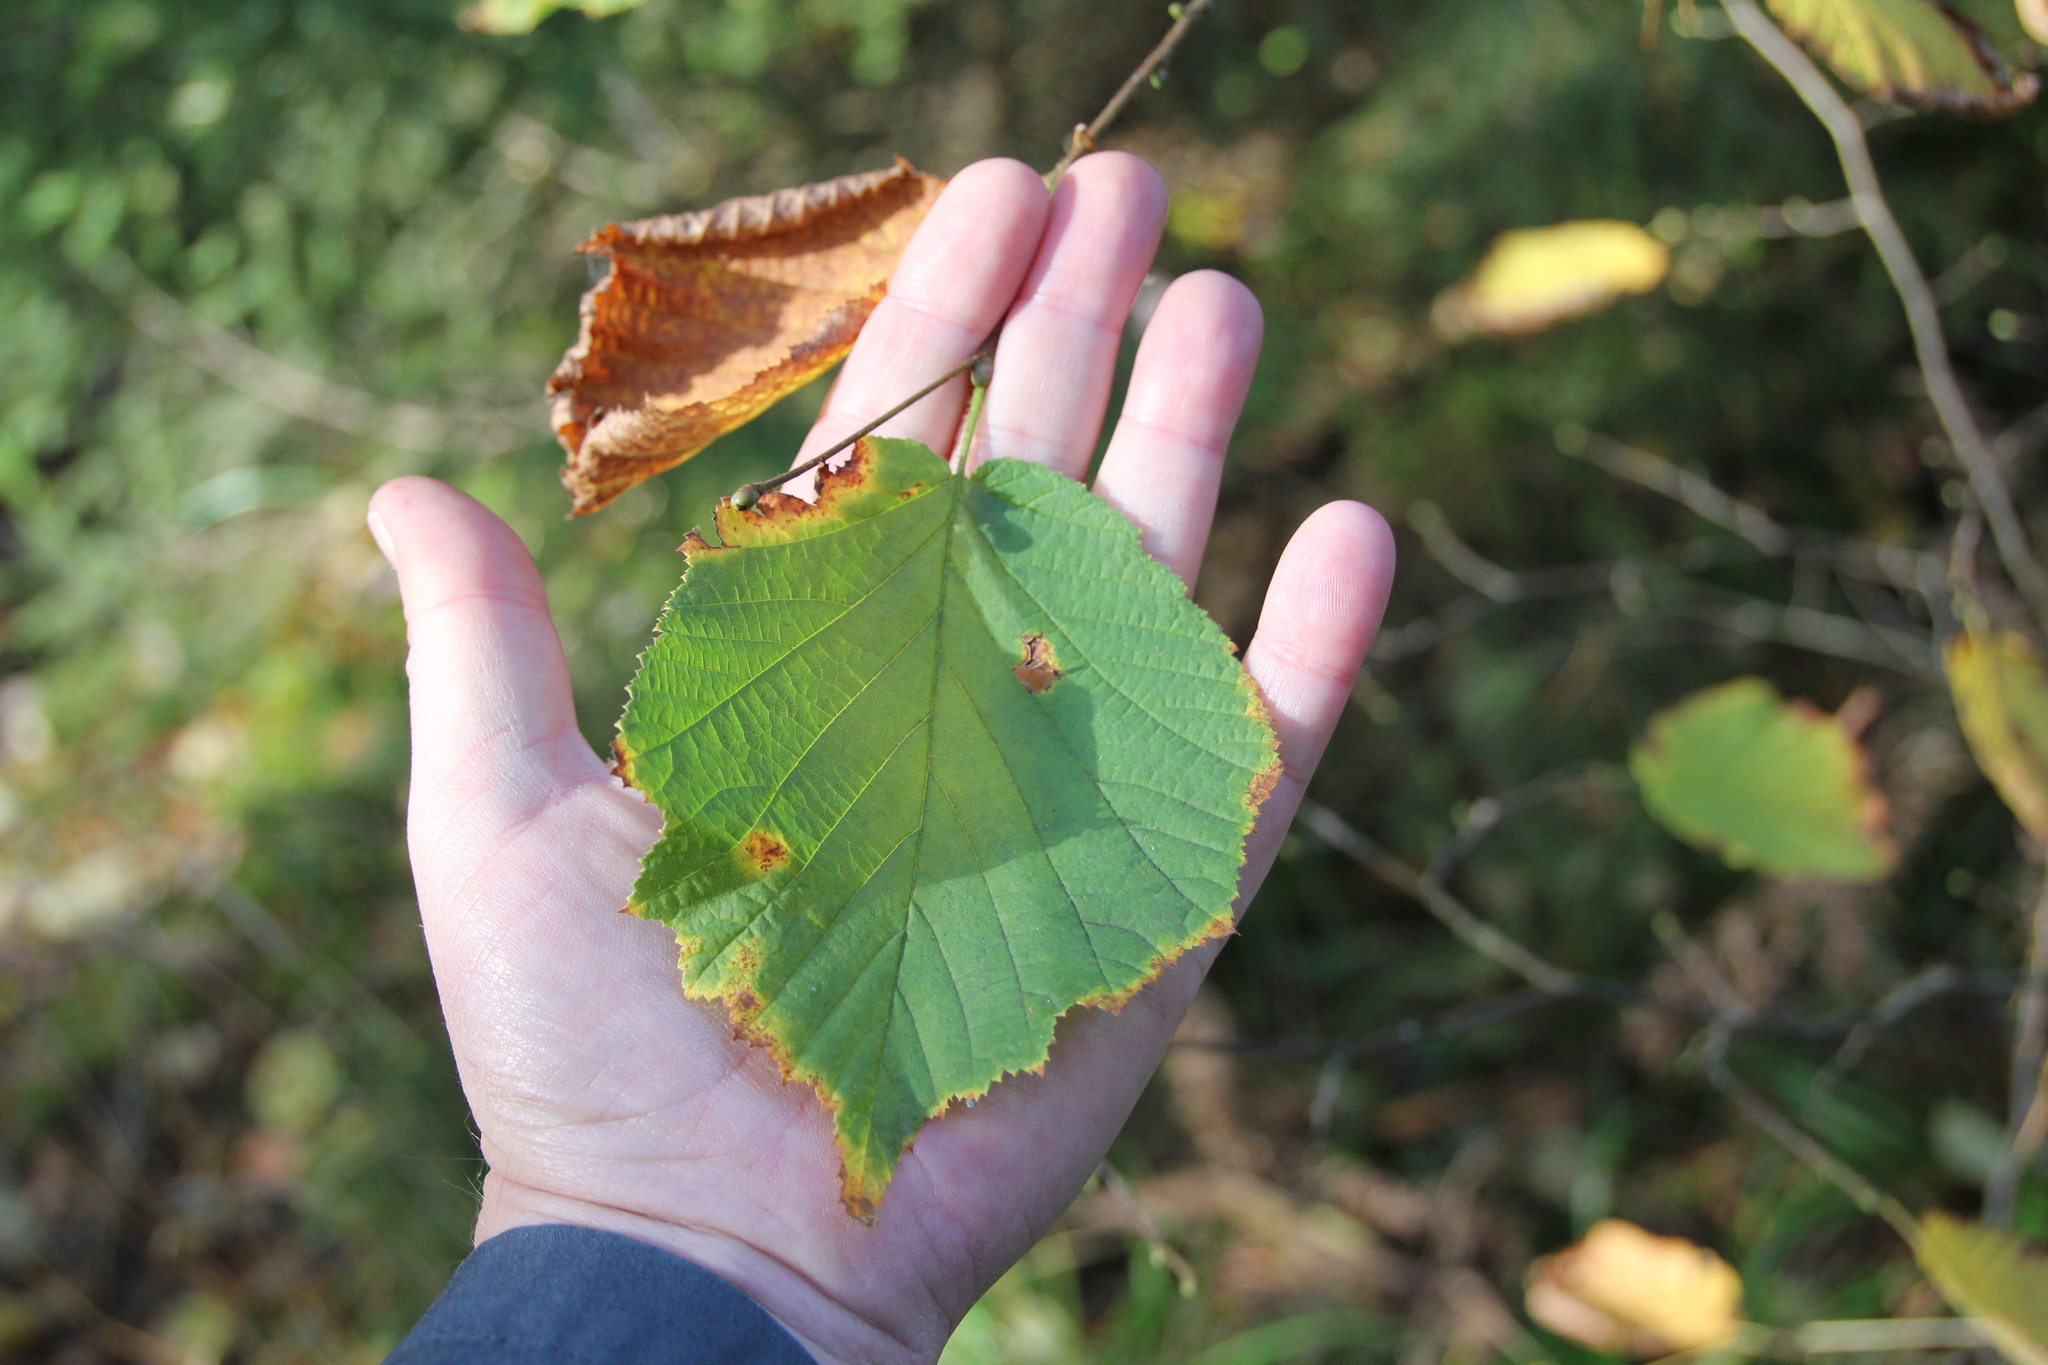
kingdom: Plantae
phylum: Tracheophyta
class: Magnoliopsida
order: Fagales
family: Betulaceae
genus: Corylus
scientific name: Corylus avellana
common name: European hazel
